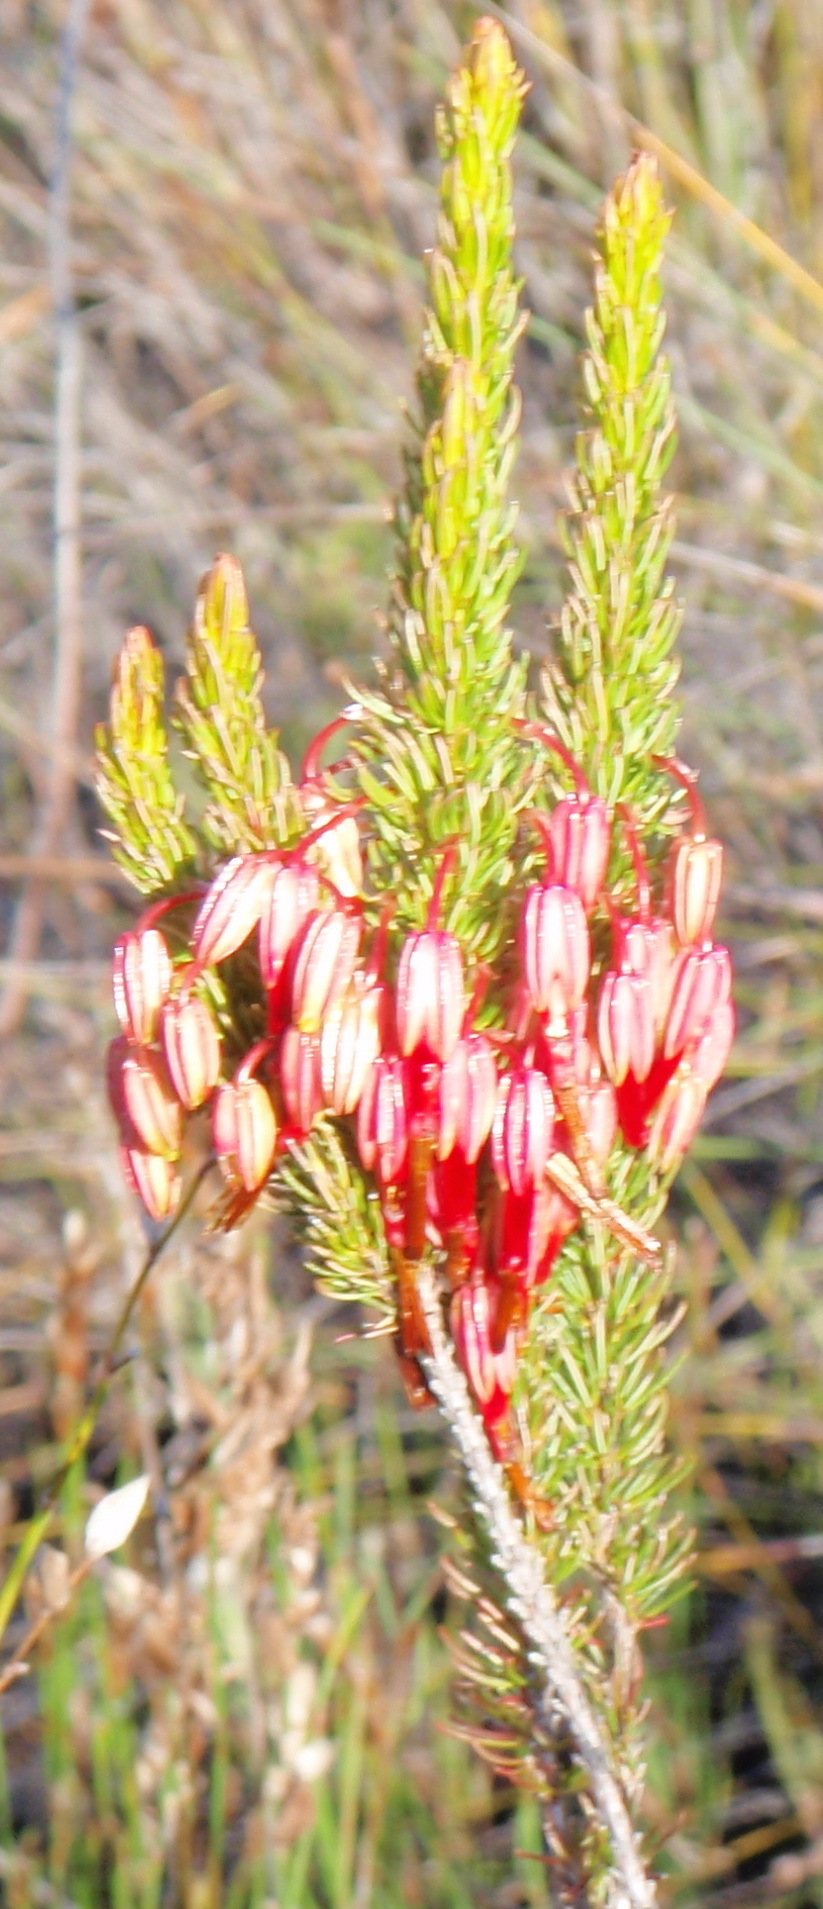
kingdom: Plantae
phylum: Tracheophyta
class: Magnoliopsida
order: Ericales
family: Ericaceae
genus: Erica
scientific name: Erica plukenetii
